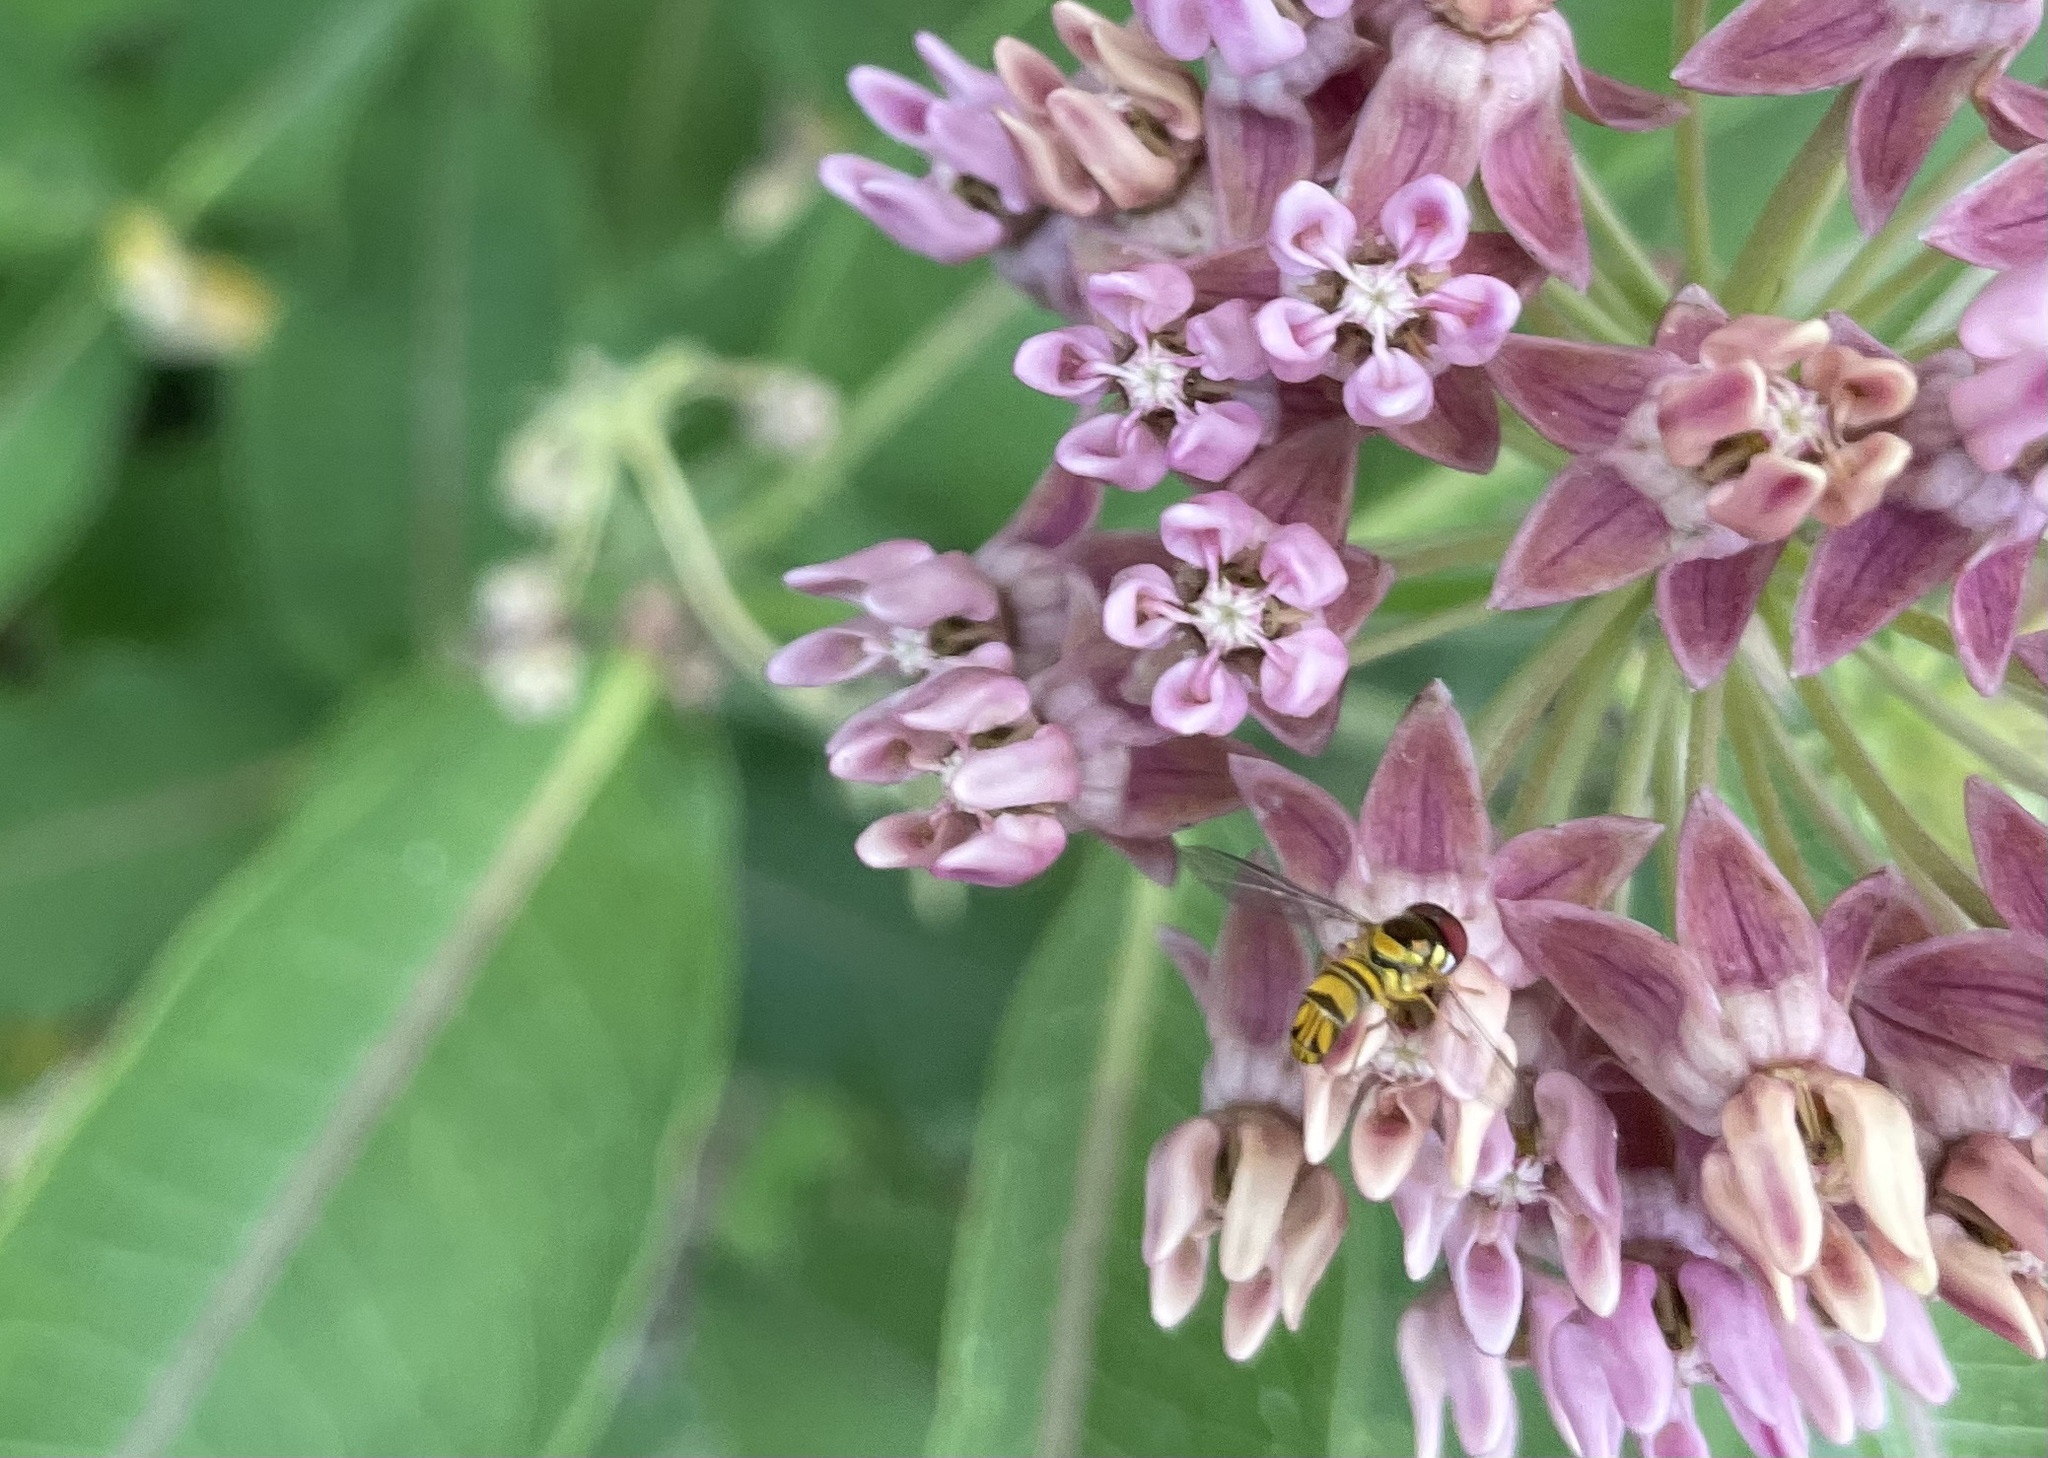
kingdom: Animalia
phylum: Arthropoda
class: Insecta
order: Diptera
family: Syrphidae
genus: Allograpta
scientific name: Allograpta obliqua
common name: Common oblique syrphid
